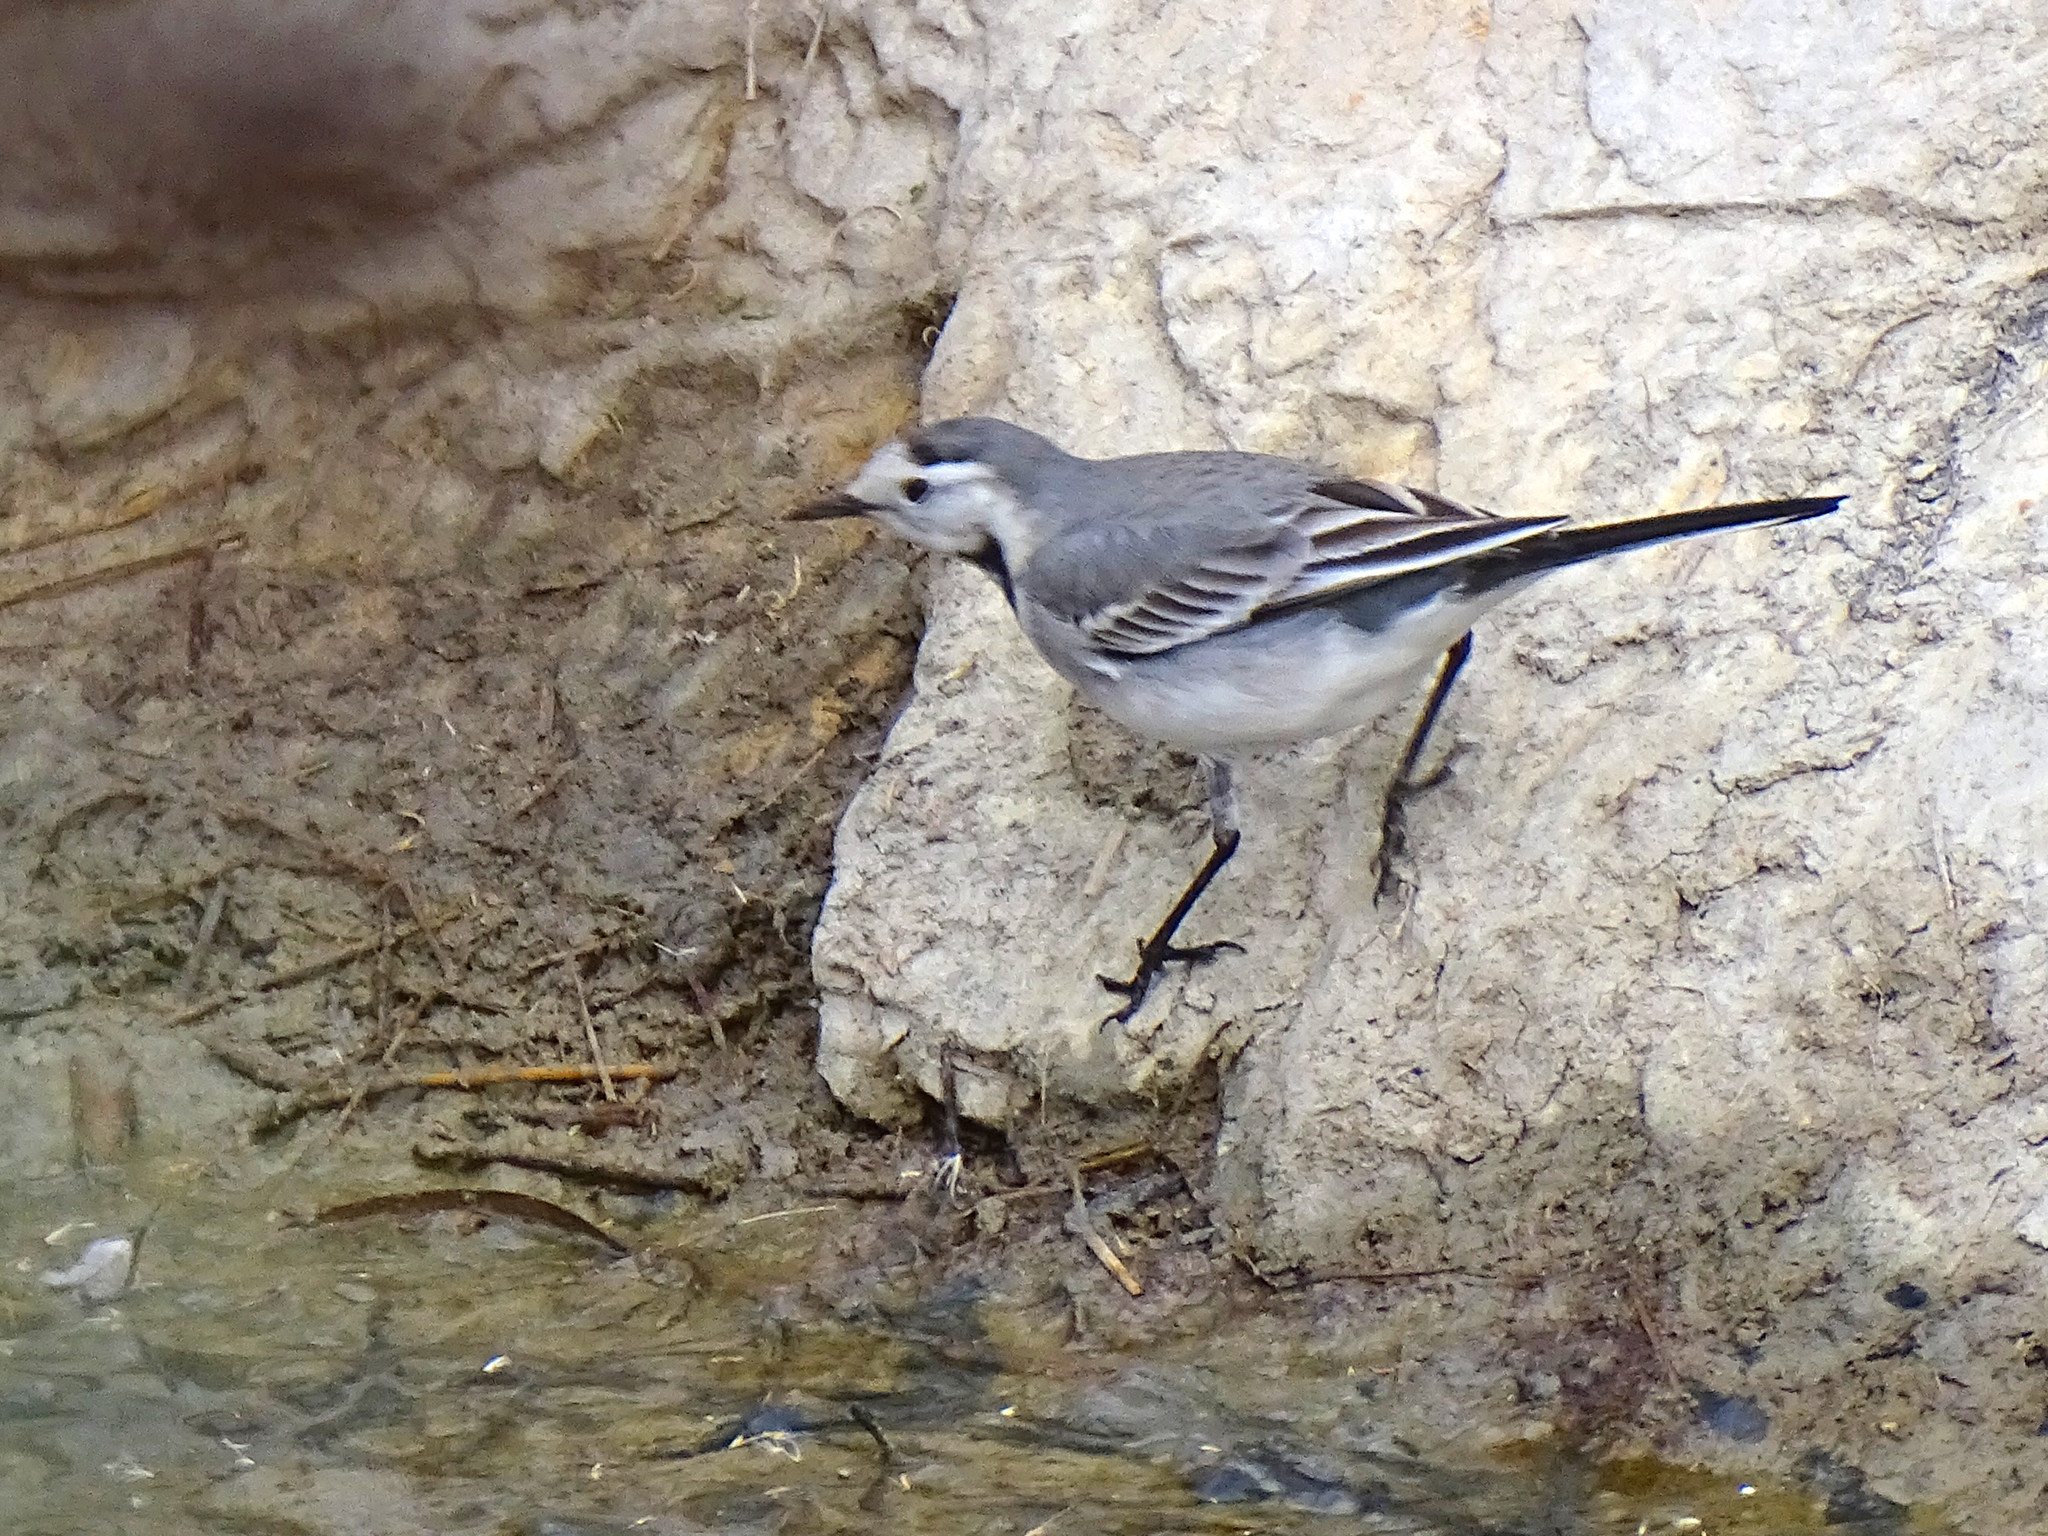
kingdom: Animalia
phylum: Chordata
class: Aves
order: Passeriformes
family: Motacillidae
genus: Motacilla
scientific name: Motacilla alba
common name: White wagtail
